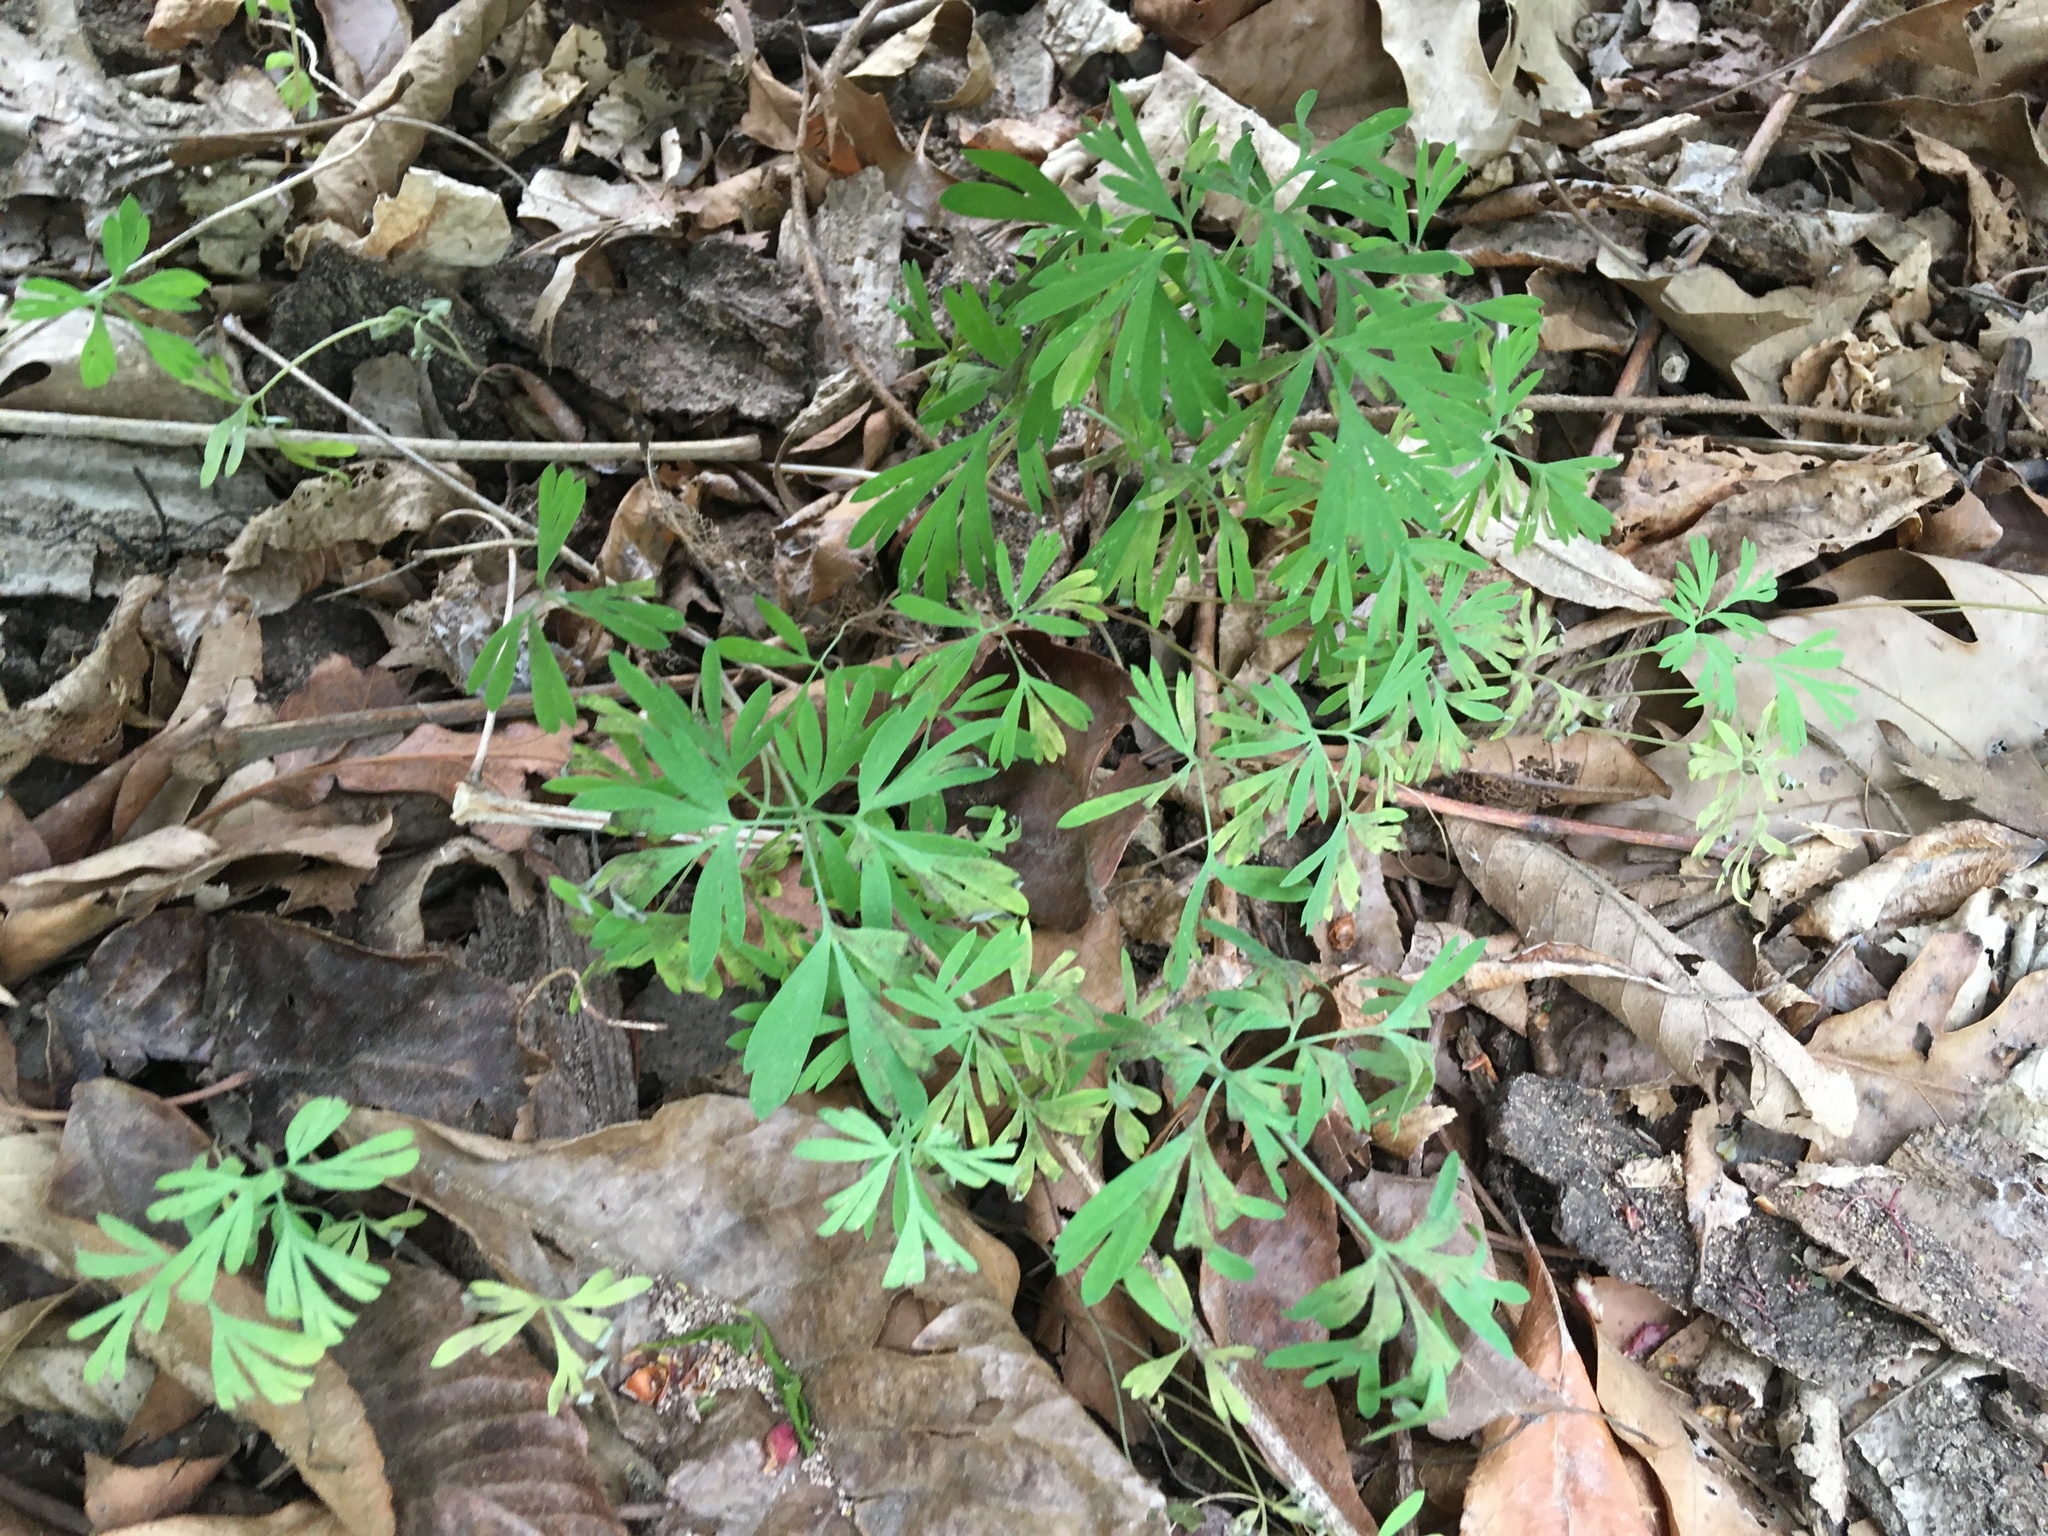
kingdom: Plantae
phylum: Tracheophyta
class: Magnoliopsida
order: Ranunculales
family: Papaveraceae
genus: Dicentra
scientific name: Dicentra cucullaria
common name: Dutchman's breeches
